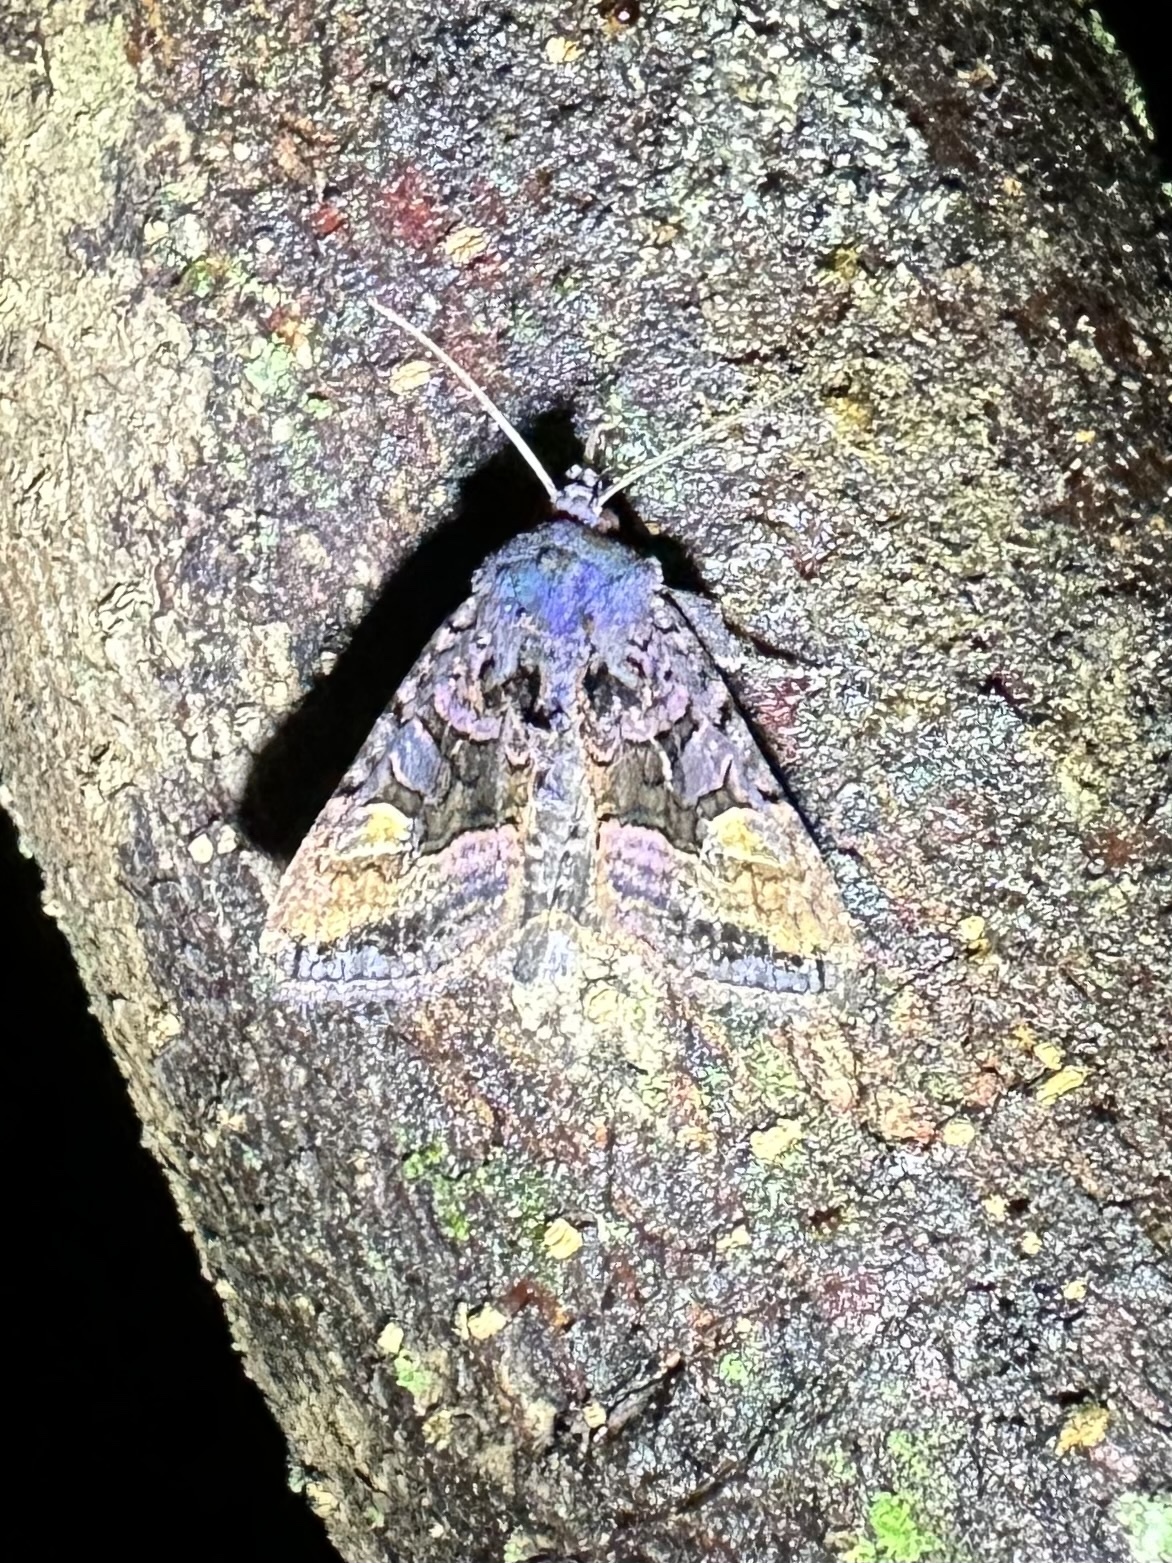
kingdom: Animalia
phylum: Arthropoda
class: Insecta
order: Lepidoptera
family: Noctuidae
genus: Euplexia
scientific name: Euplexia benesimilis
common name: American angle shades
